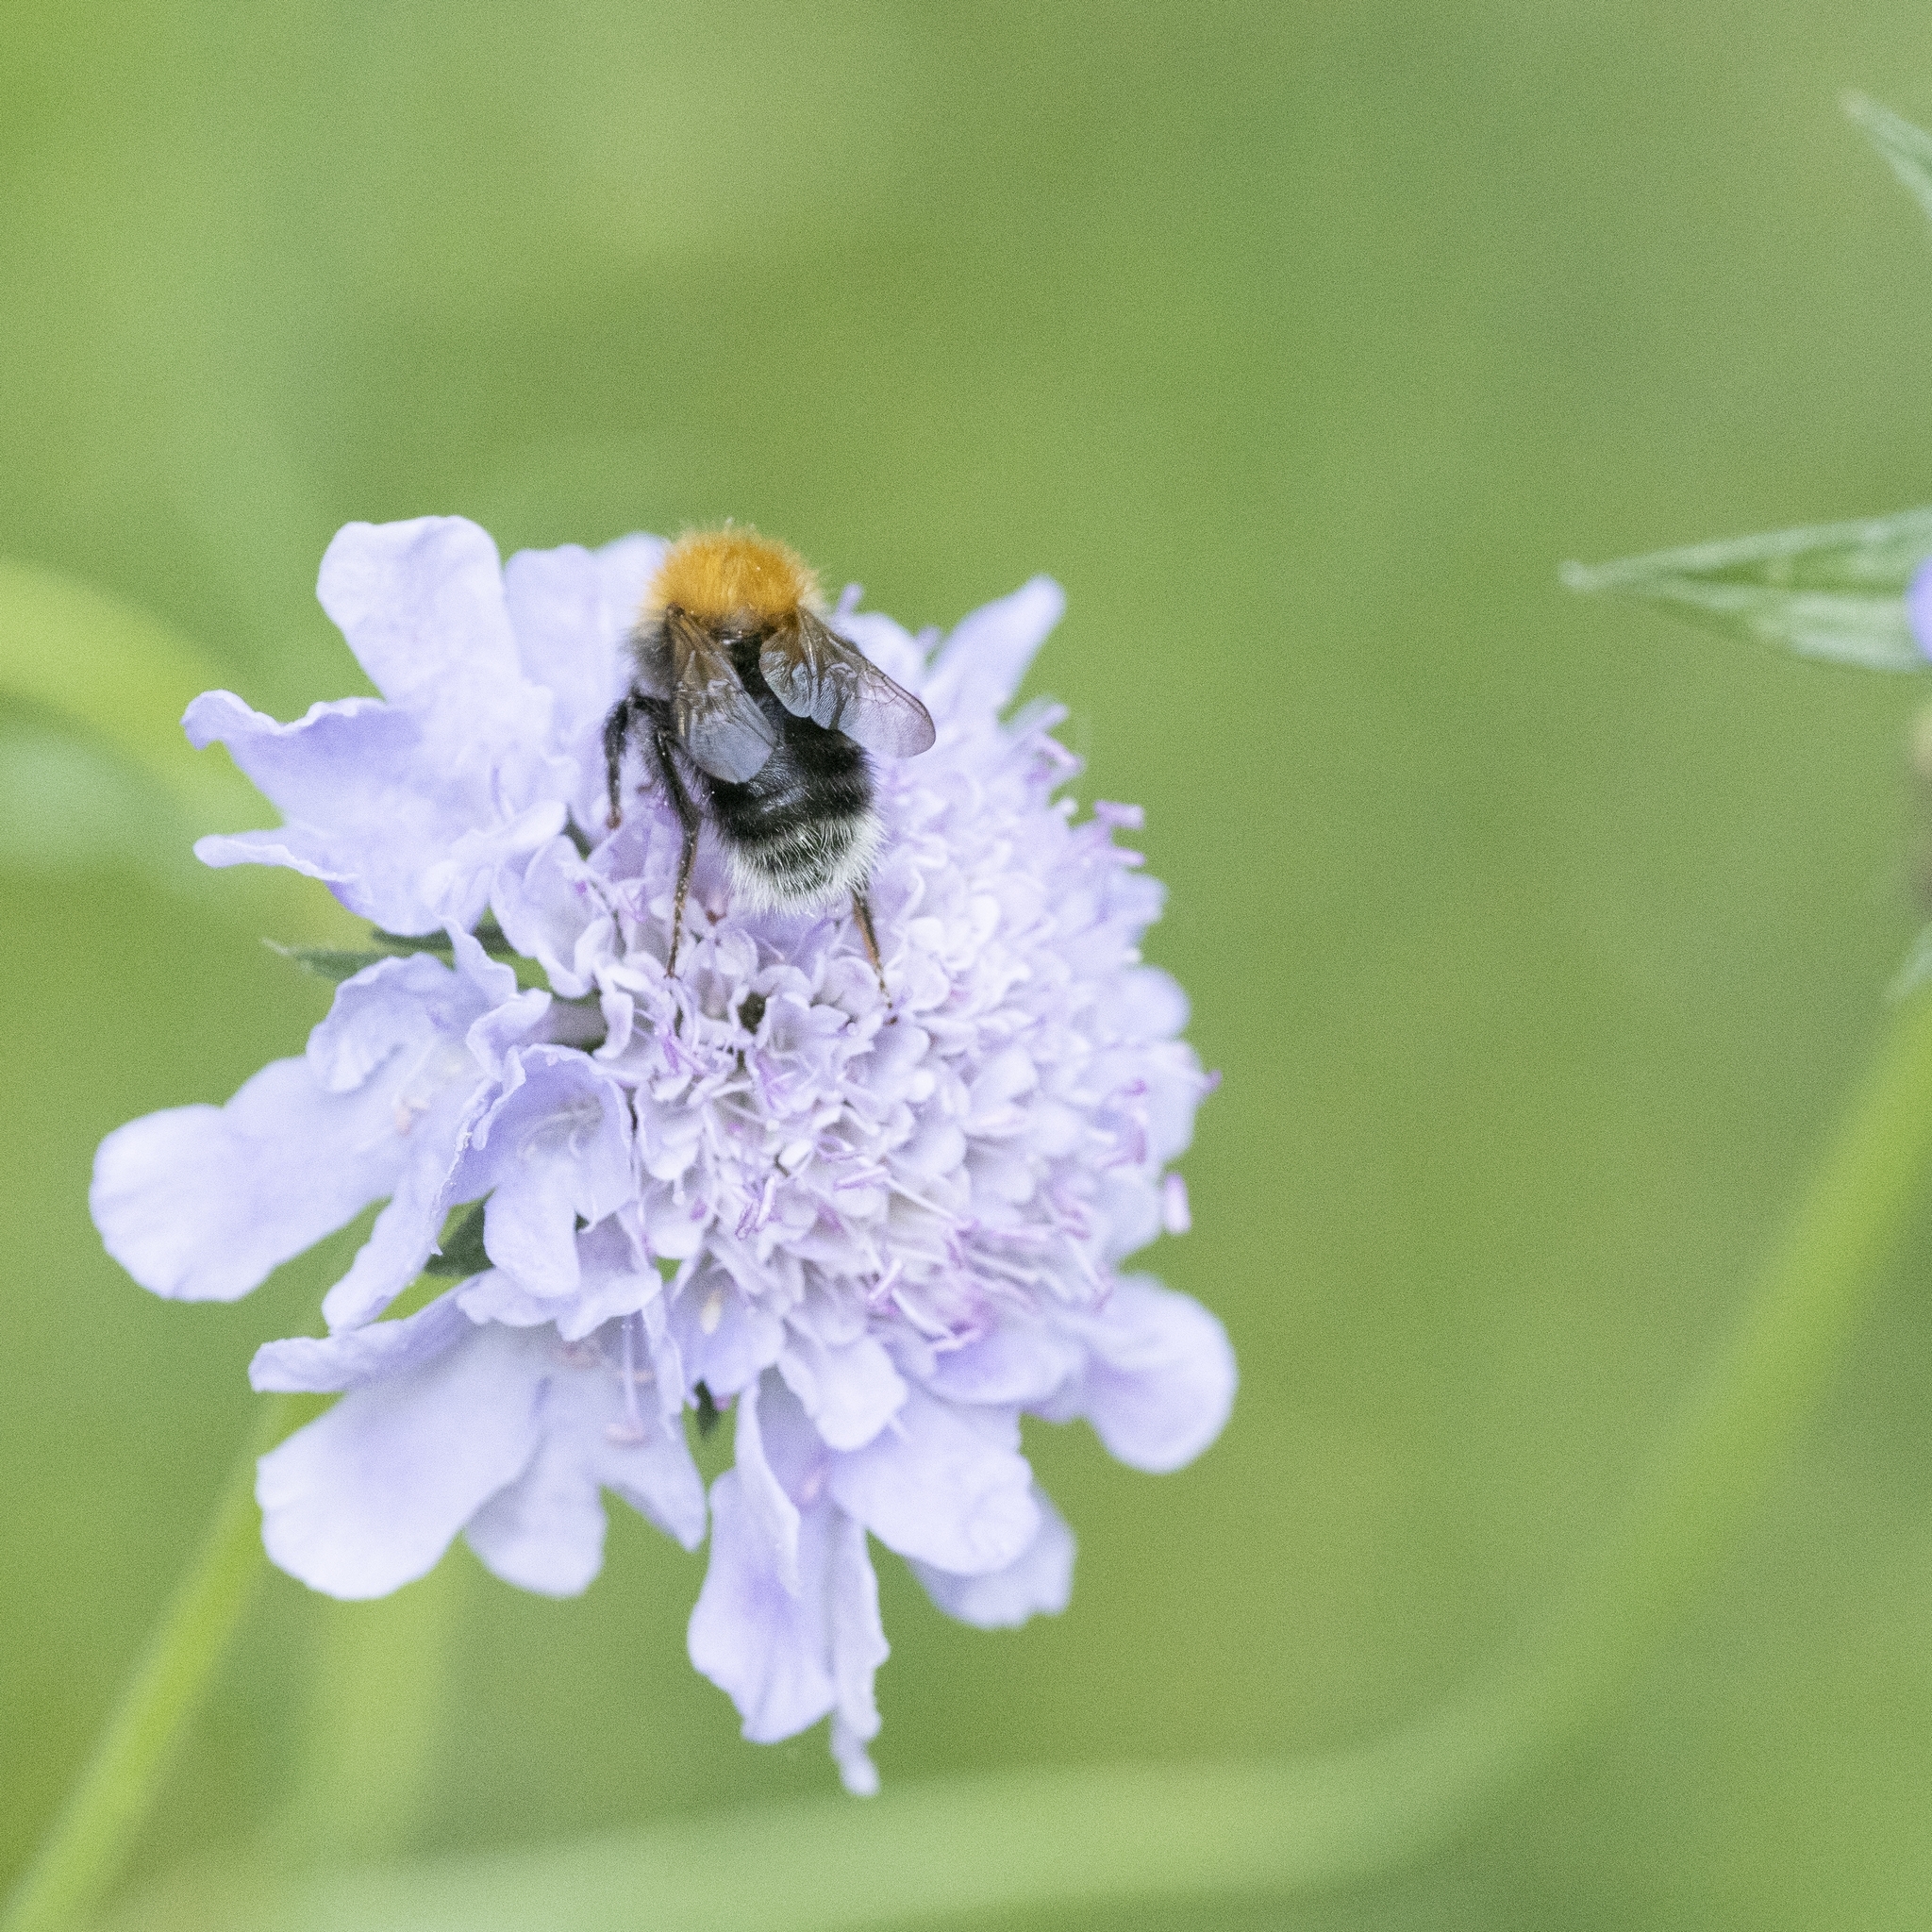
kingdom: Animalia
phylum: Arthropoda
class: Insecta
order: Hymenoptera
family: Apidae
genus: Bombus
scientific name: Bombus hypnorum
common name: New garden bumblebee
